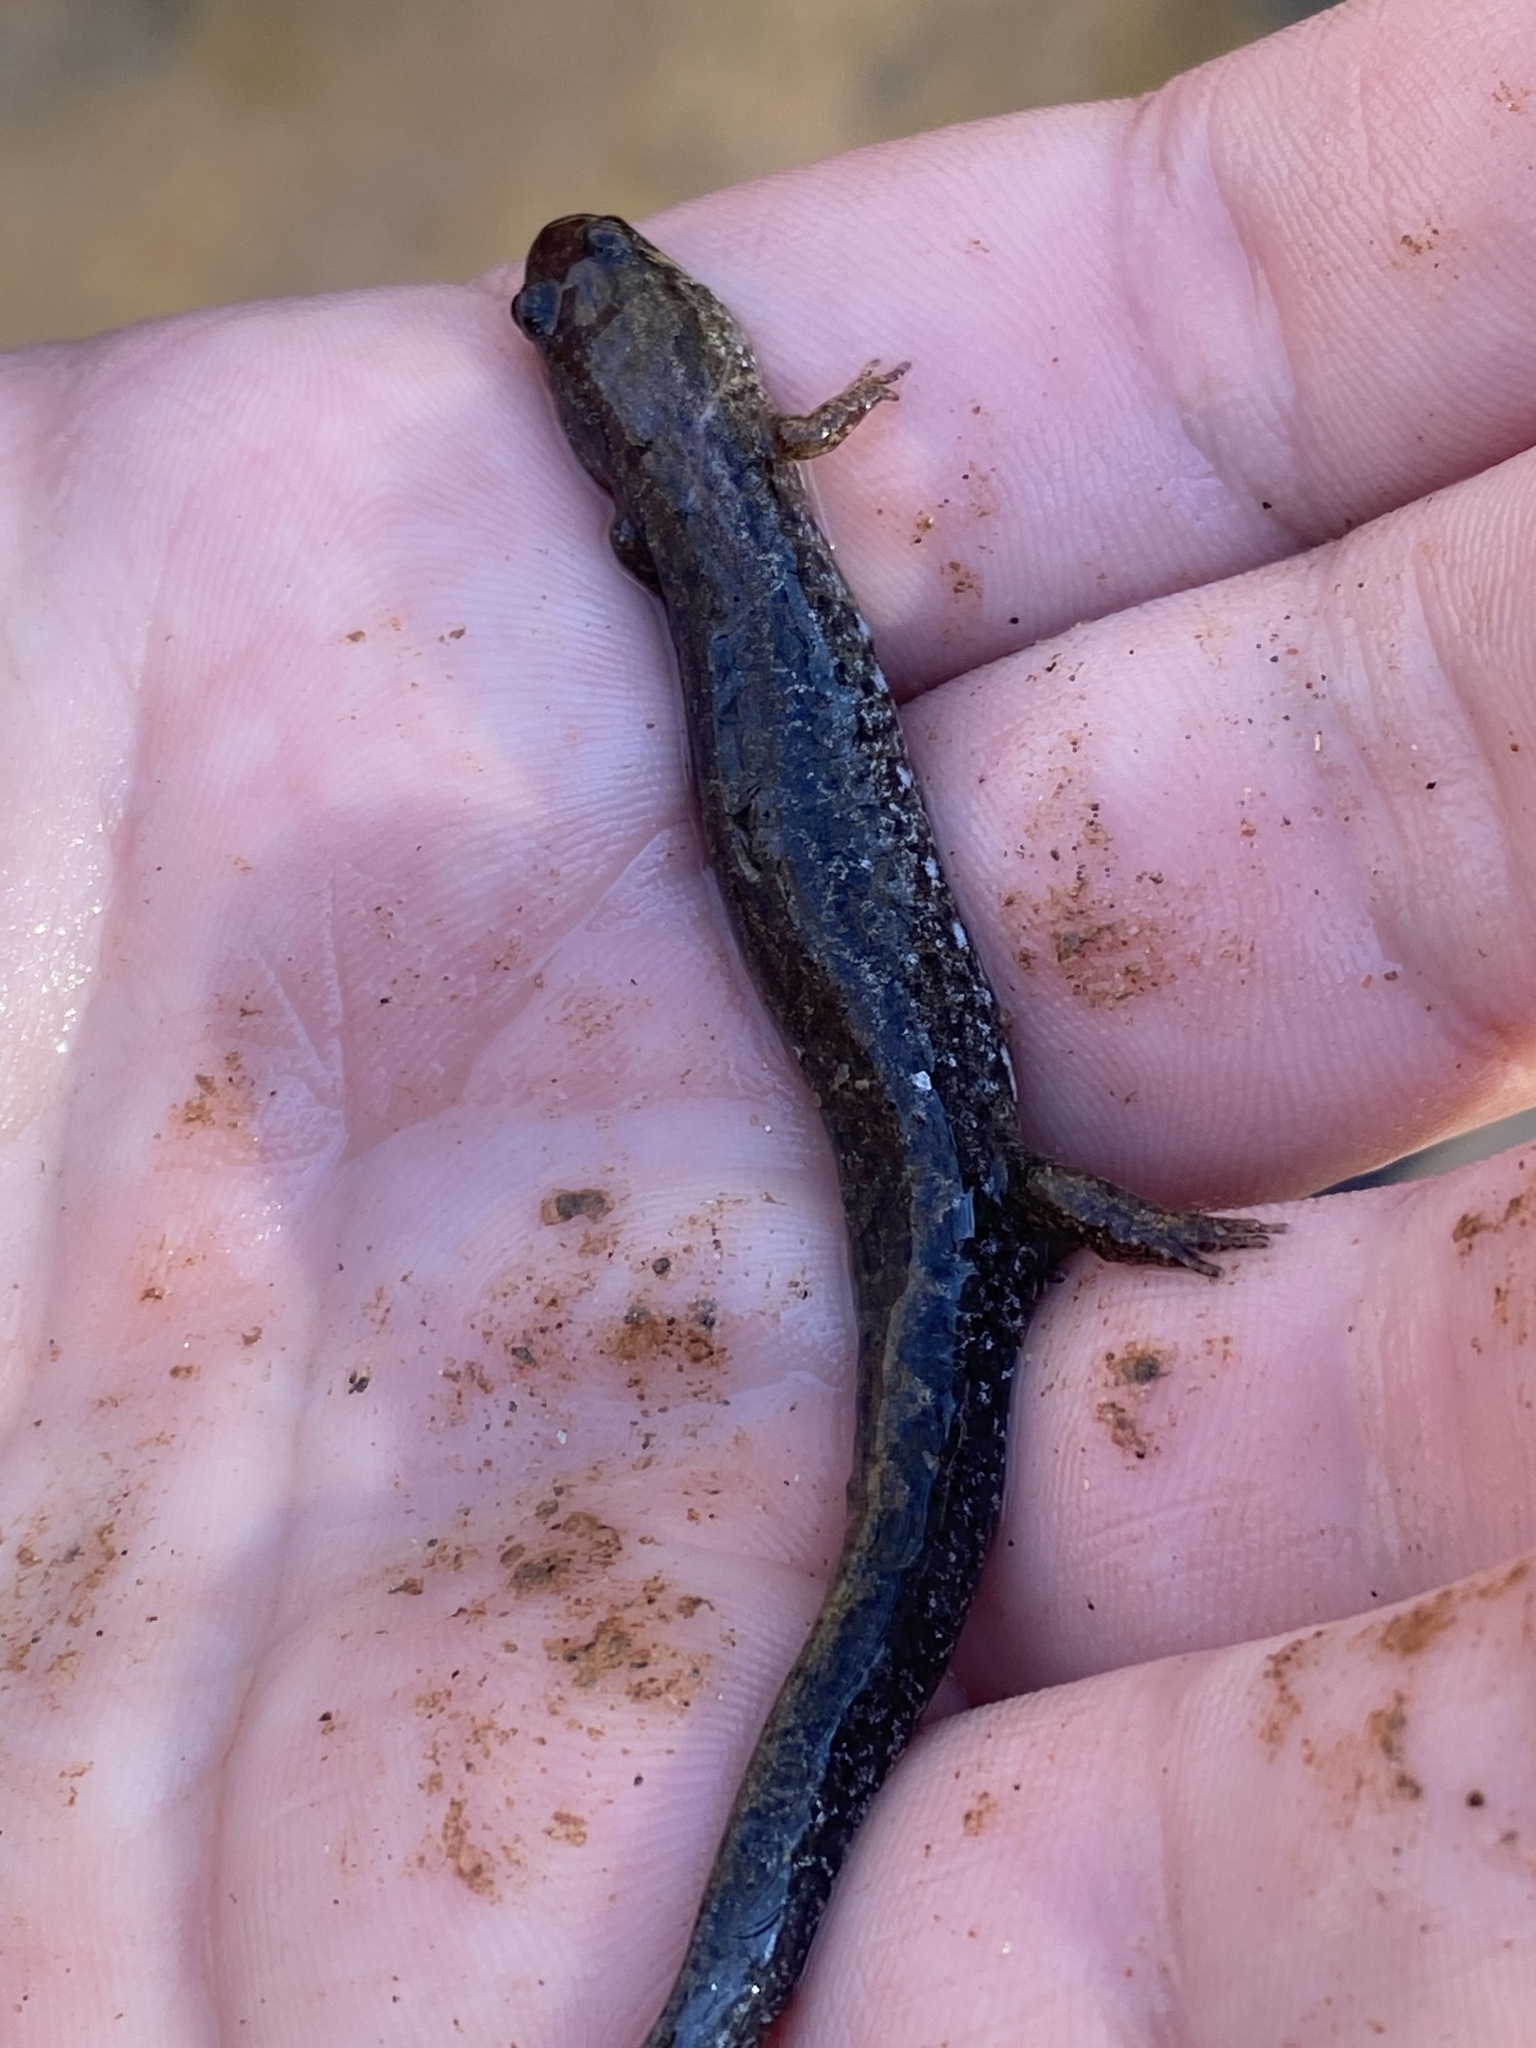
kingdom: Animalia
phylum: Chordata
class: Amphibia
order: Caudata
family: Plethodontidae
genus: Desmognathus
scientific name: Desmognathus
